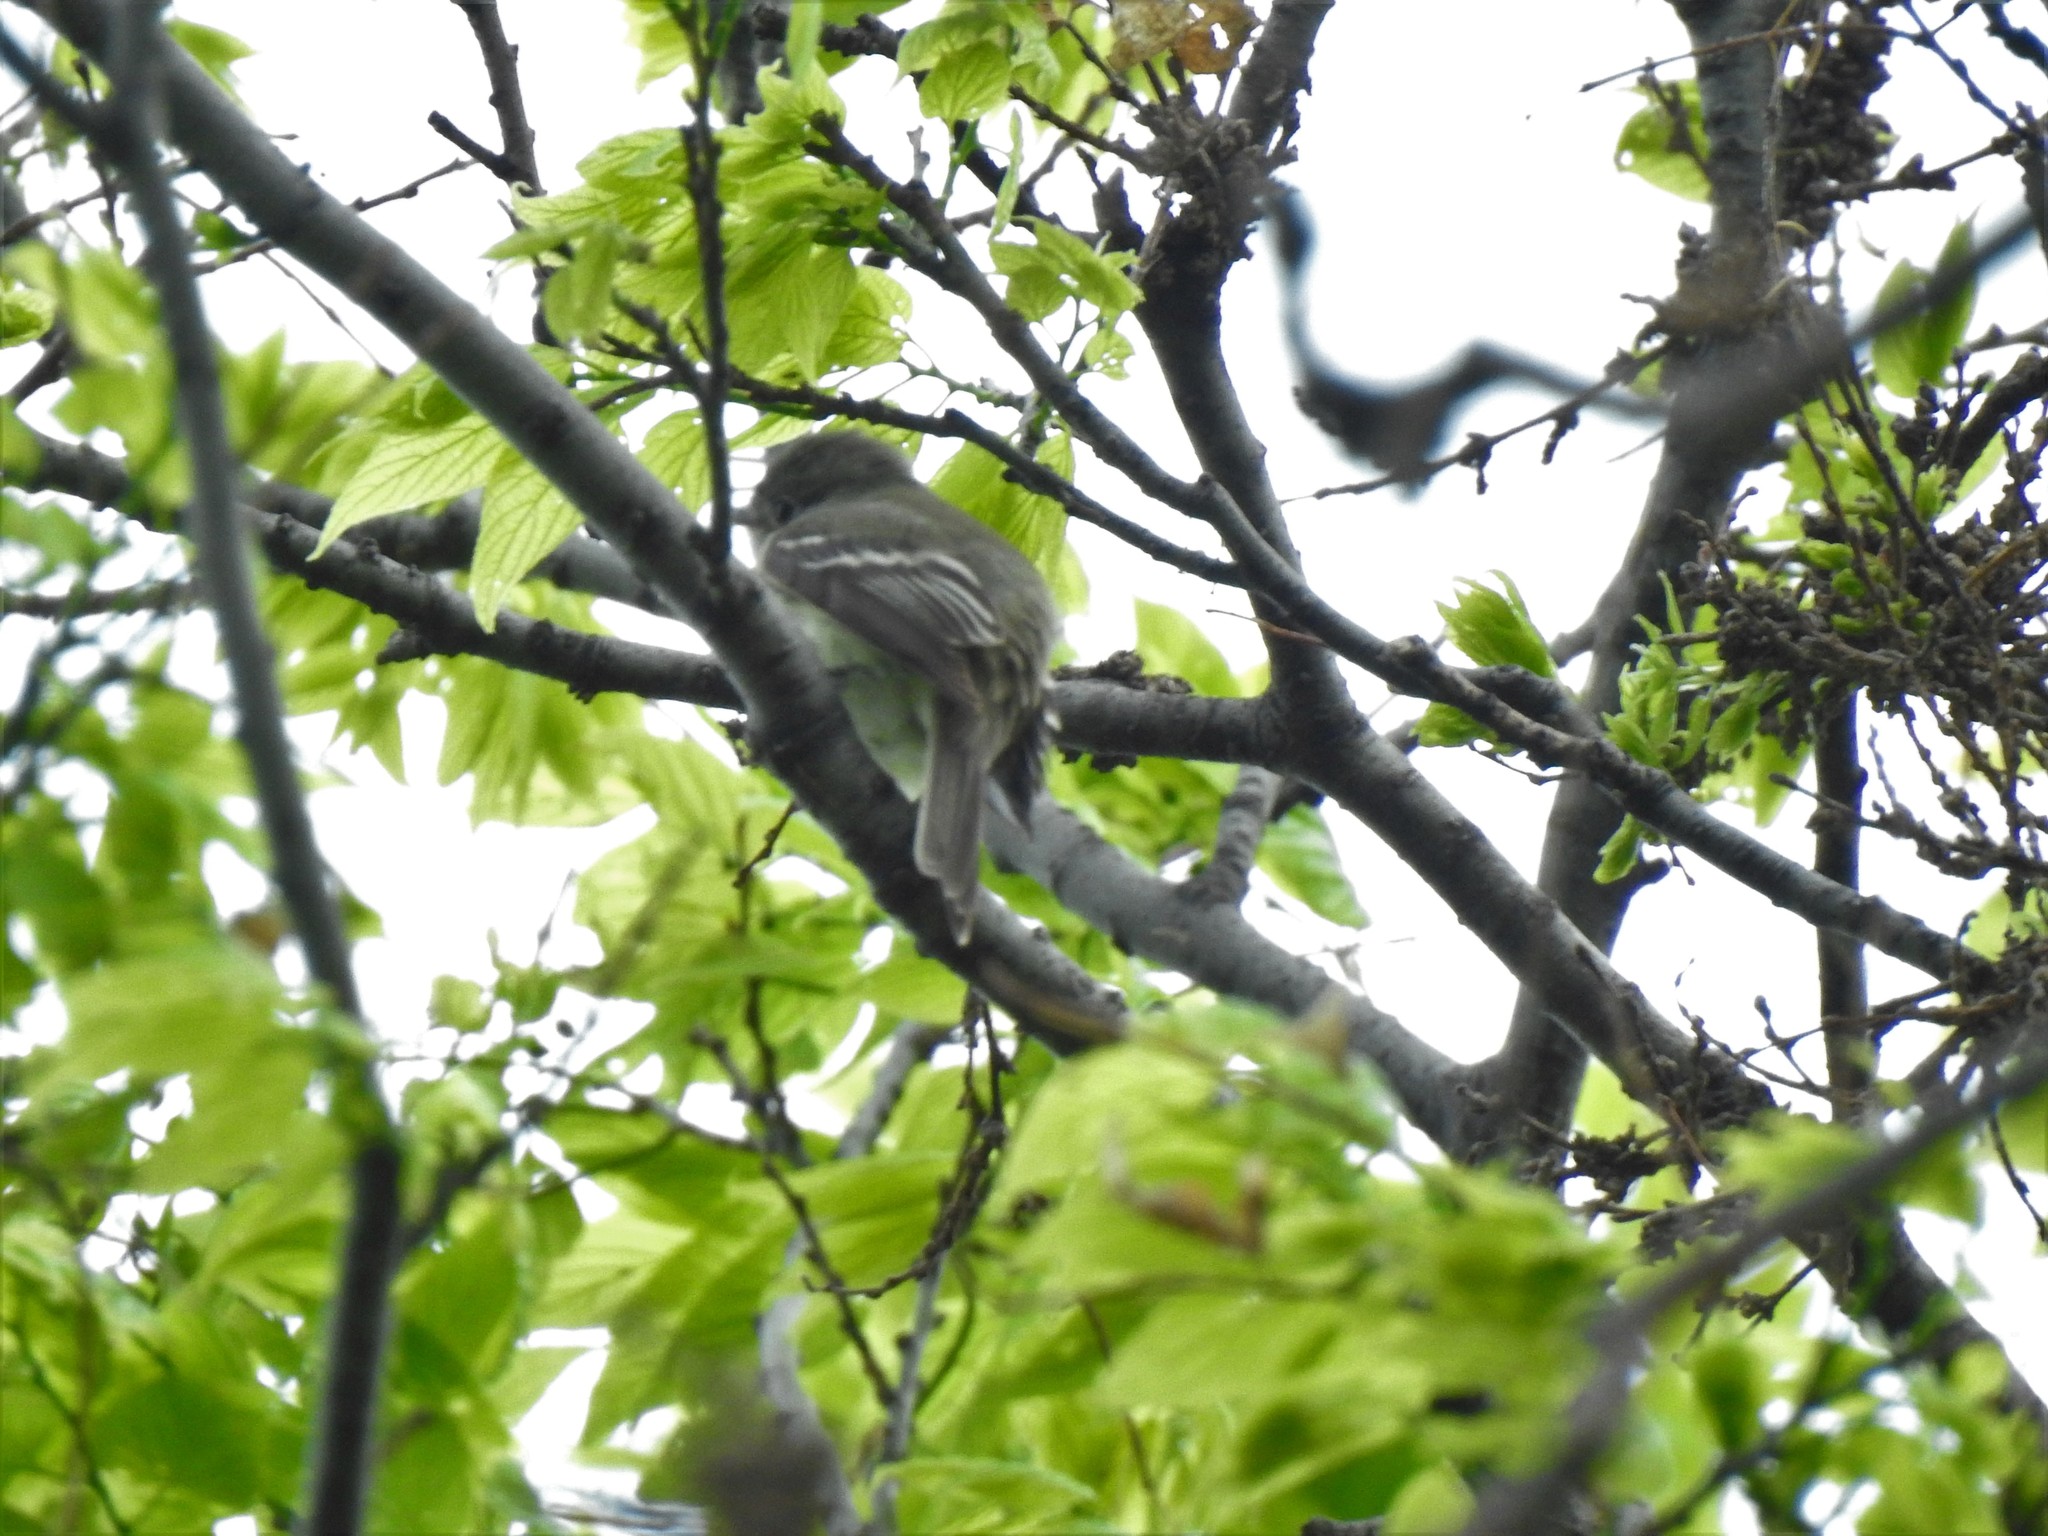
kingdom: Animalia
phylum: Chordata
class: Aves
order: Passeriformes
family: Tyrannidae
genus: Empidonax
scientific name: Empidonax minimus
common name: Least flycatcher
